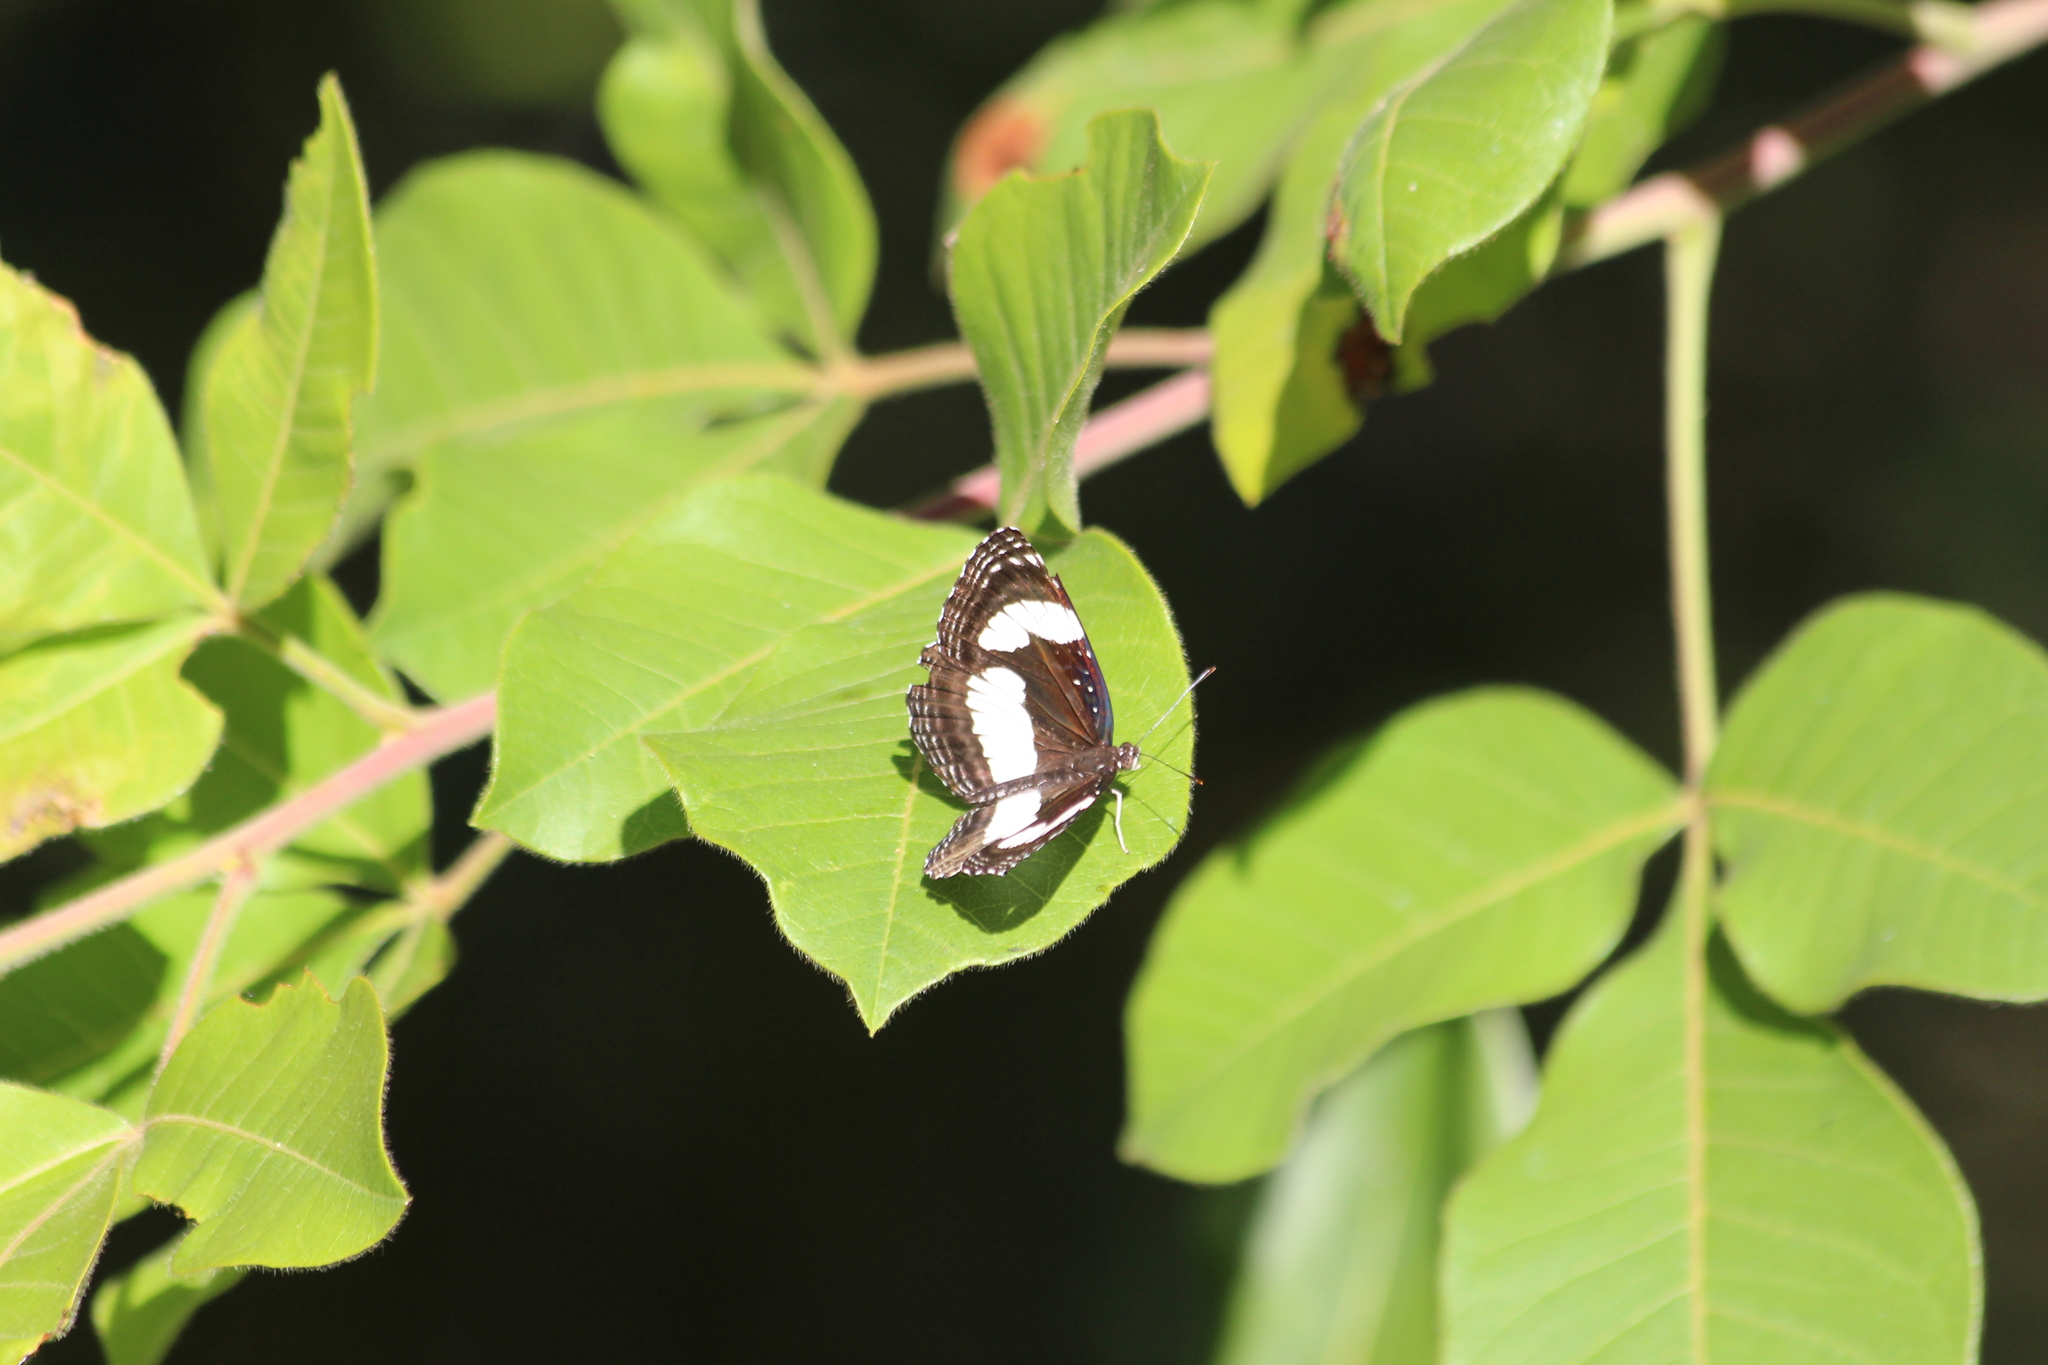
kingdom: Animalia
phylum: Arthropoda
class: Insecta
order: Lepidoptera
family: Nymphalidae
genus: Neptis
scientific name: Neptis
